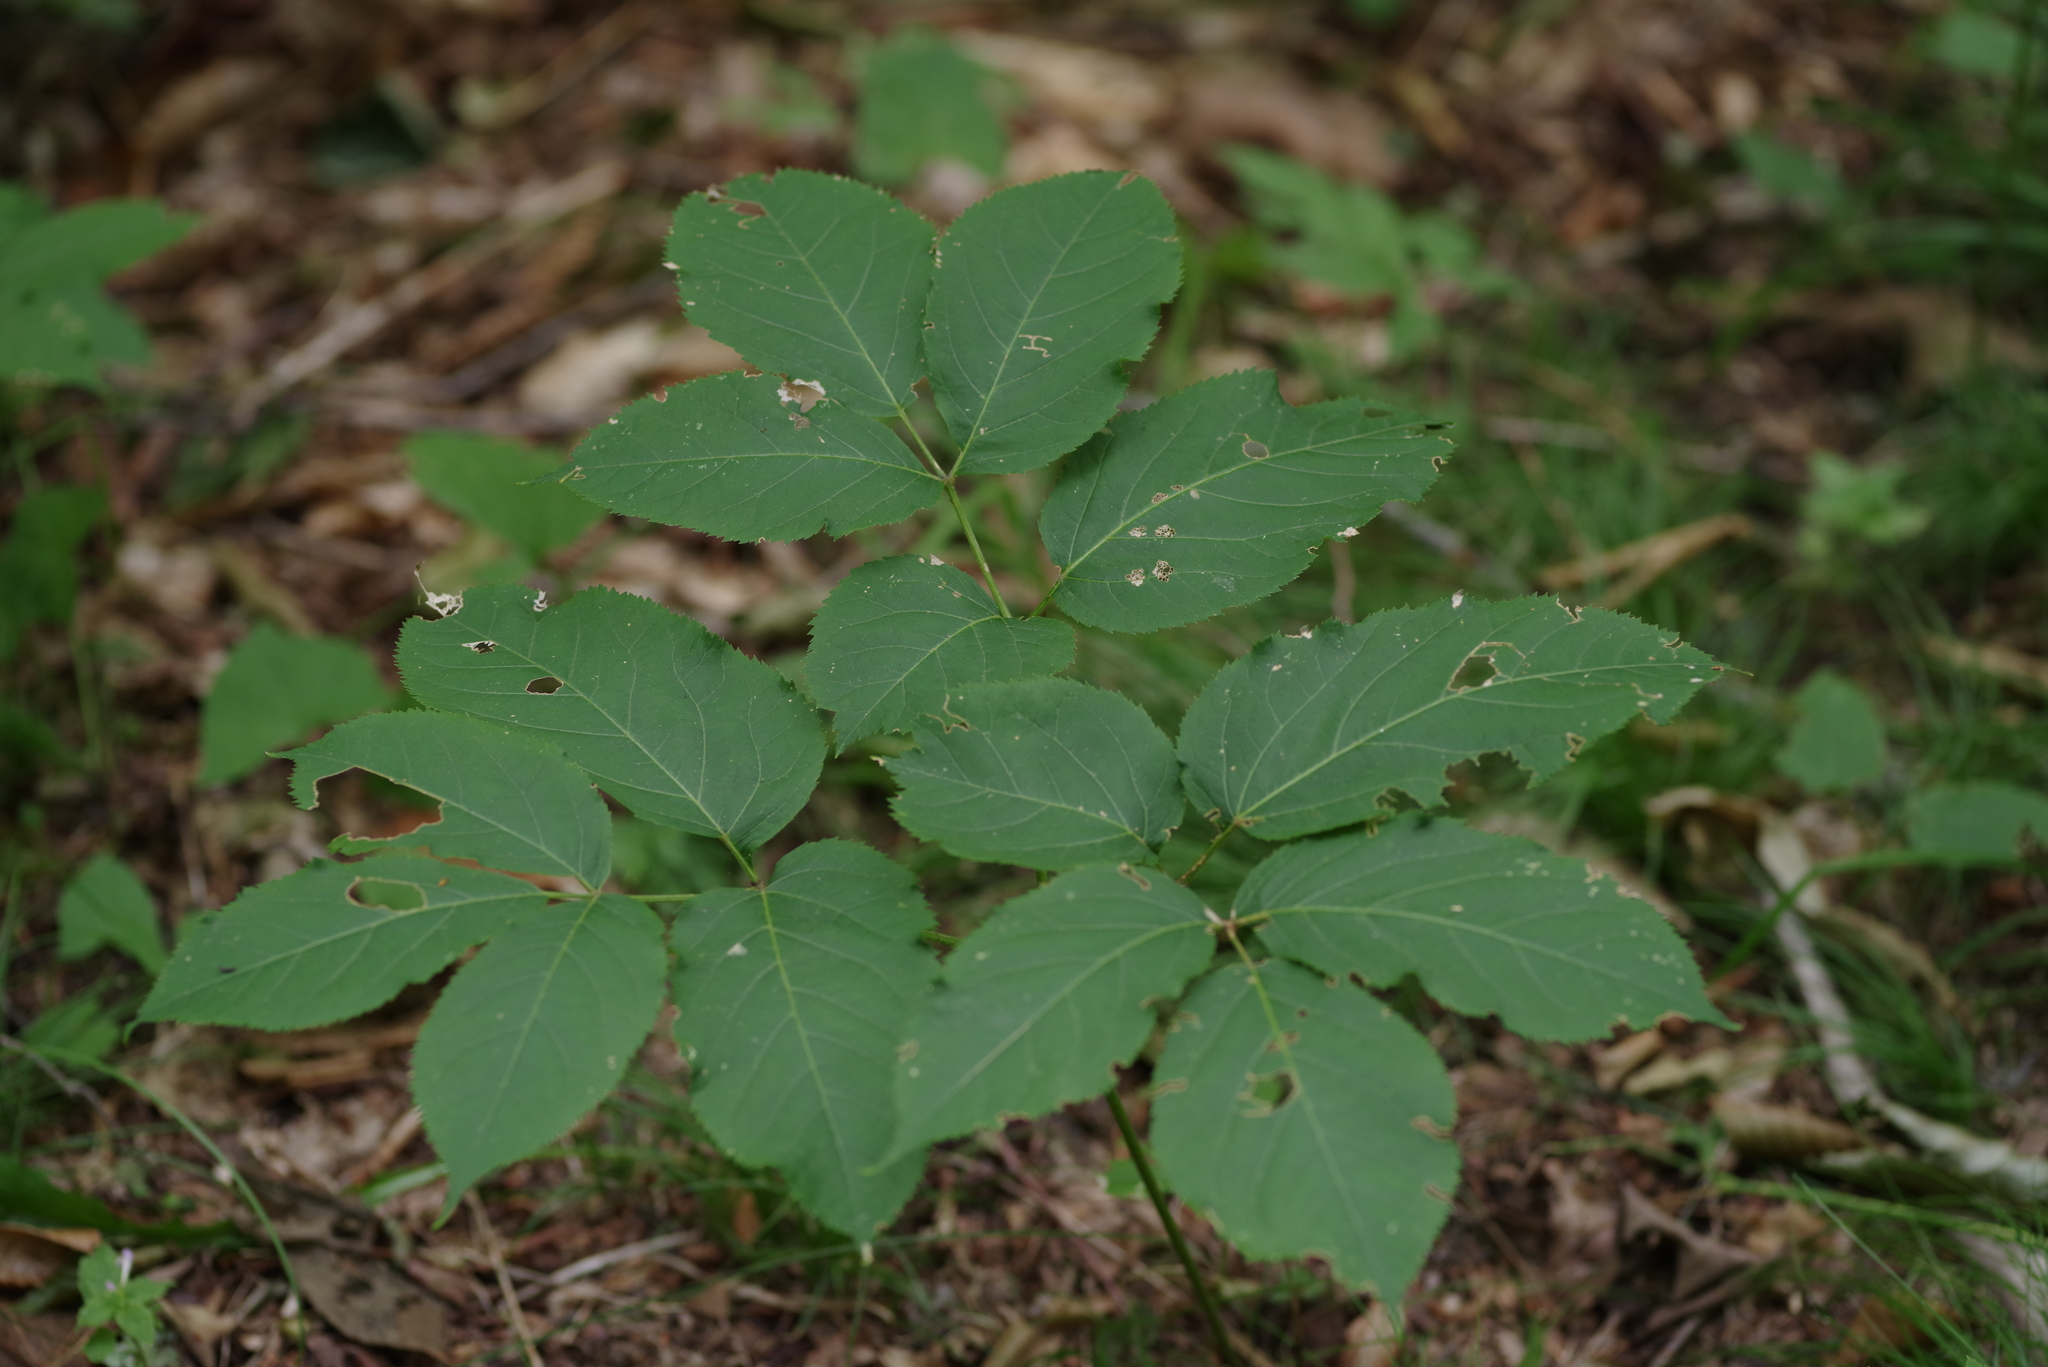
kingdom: Plantae
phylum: Tracheophyta
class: Magnoliopsida
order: Apiales
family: Araliaceae
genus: Aralia
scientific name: Aralia nudicaulis
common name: Wild sarsaparilla
